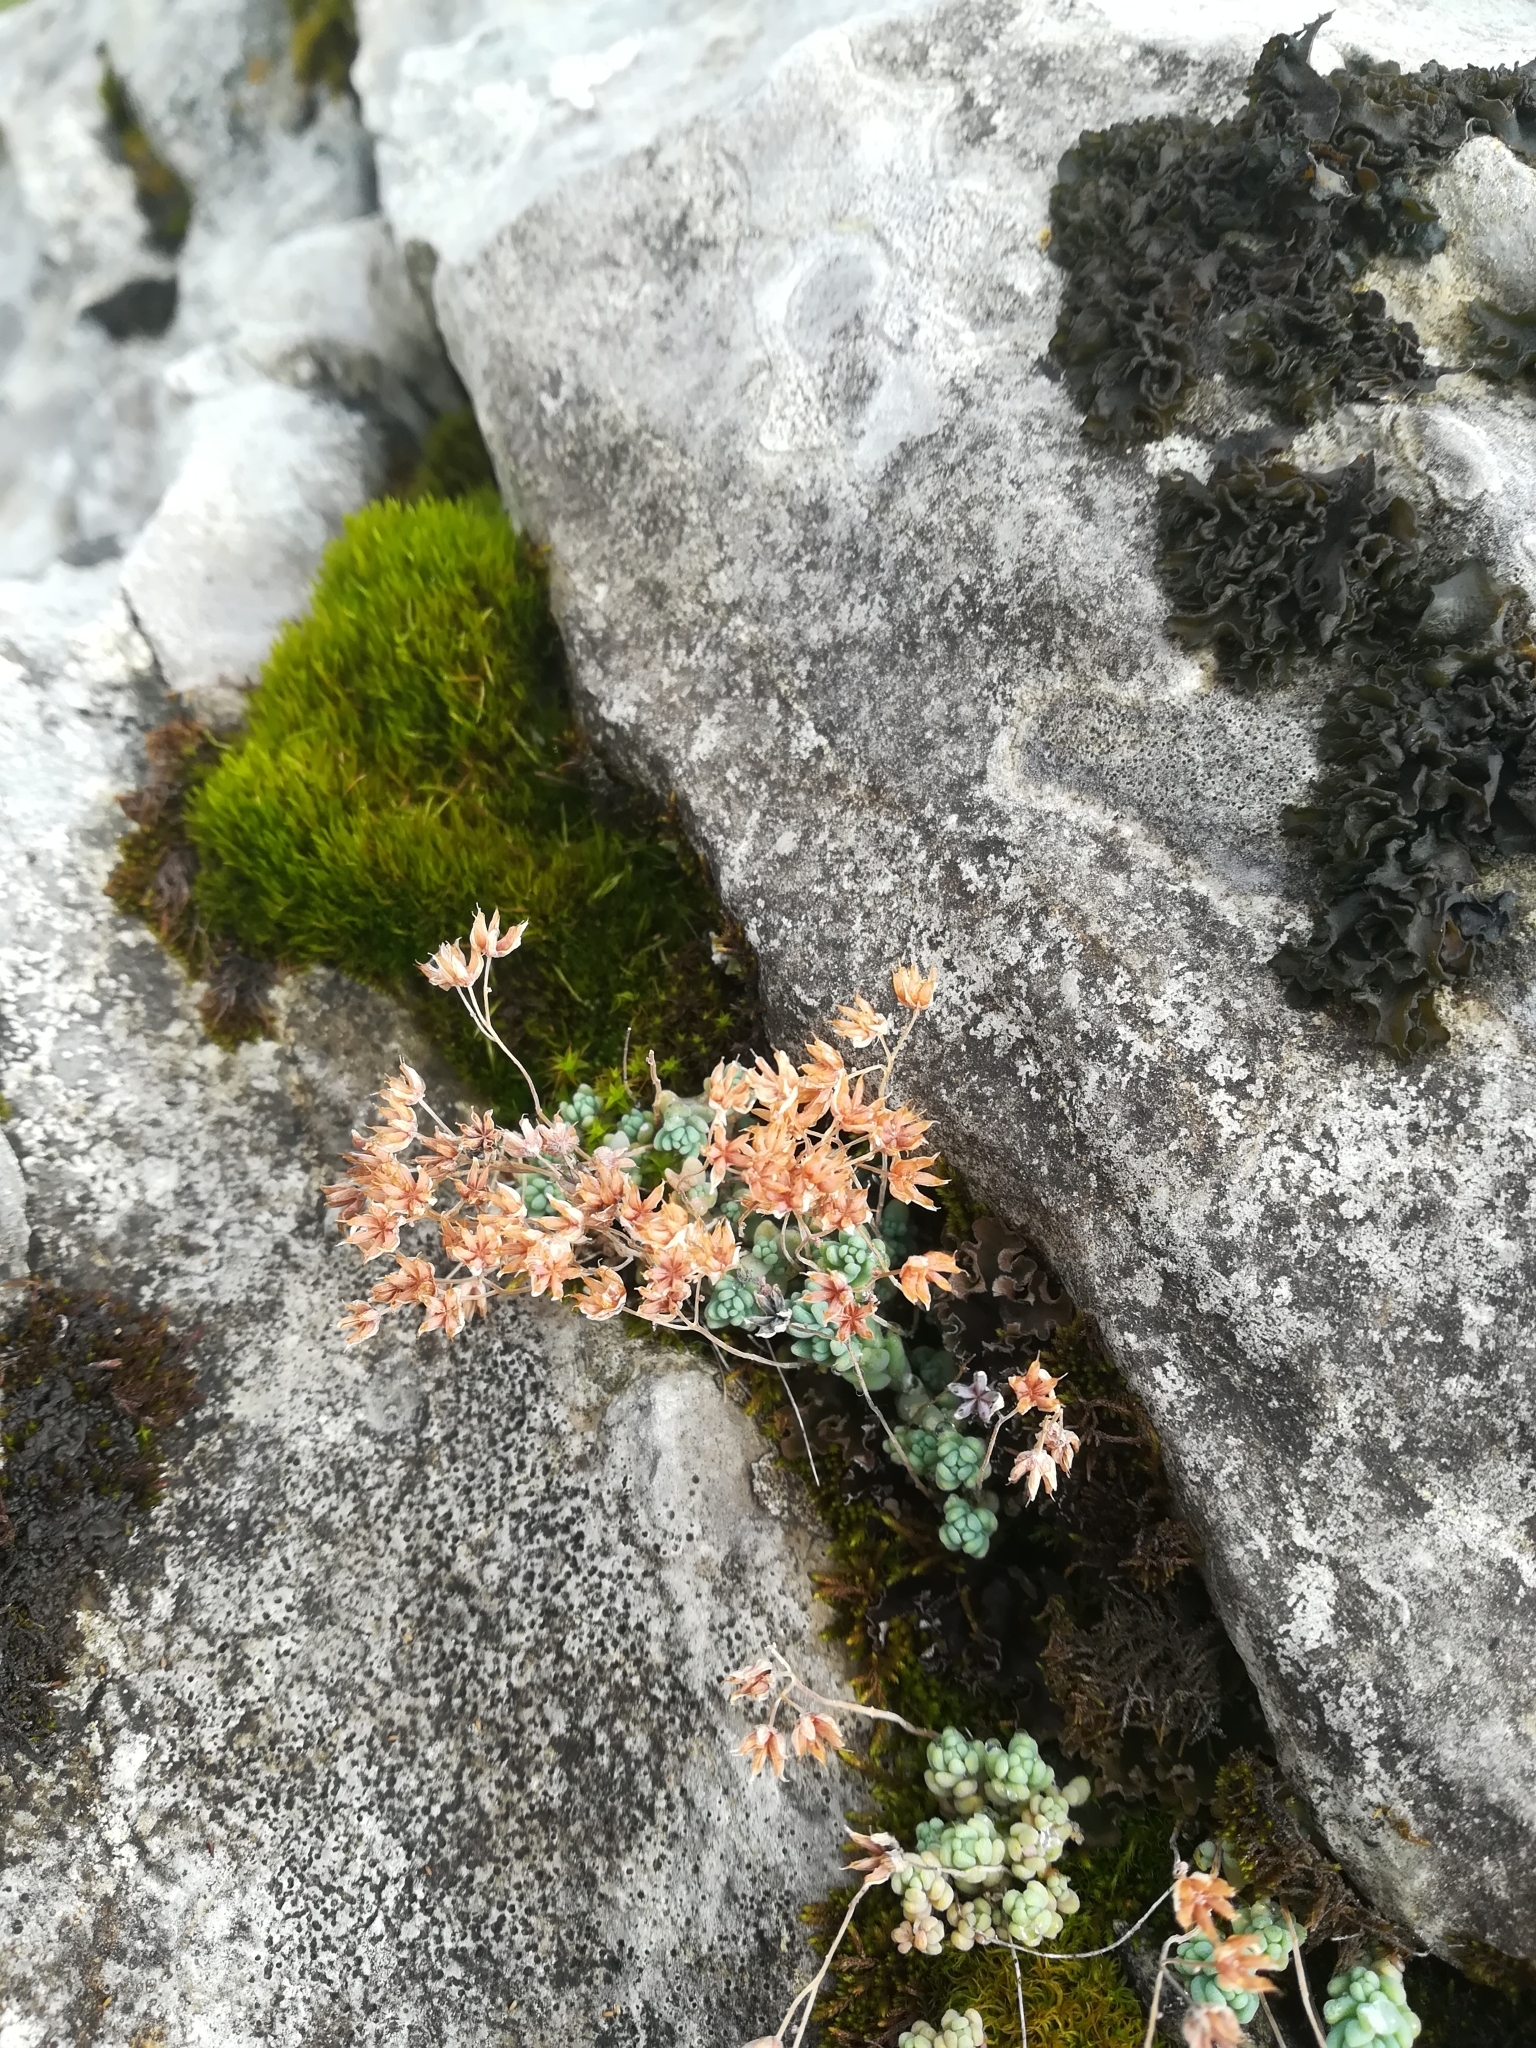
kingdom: Plantae
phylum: Tracheophyta
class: Magnoliopsida
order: Saxifragales
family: Crassulaceae
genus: Sedum
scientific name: Sedum dasyphyllum
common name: Thick-leaf stonecrop
